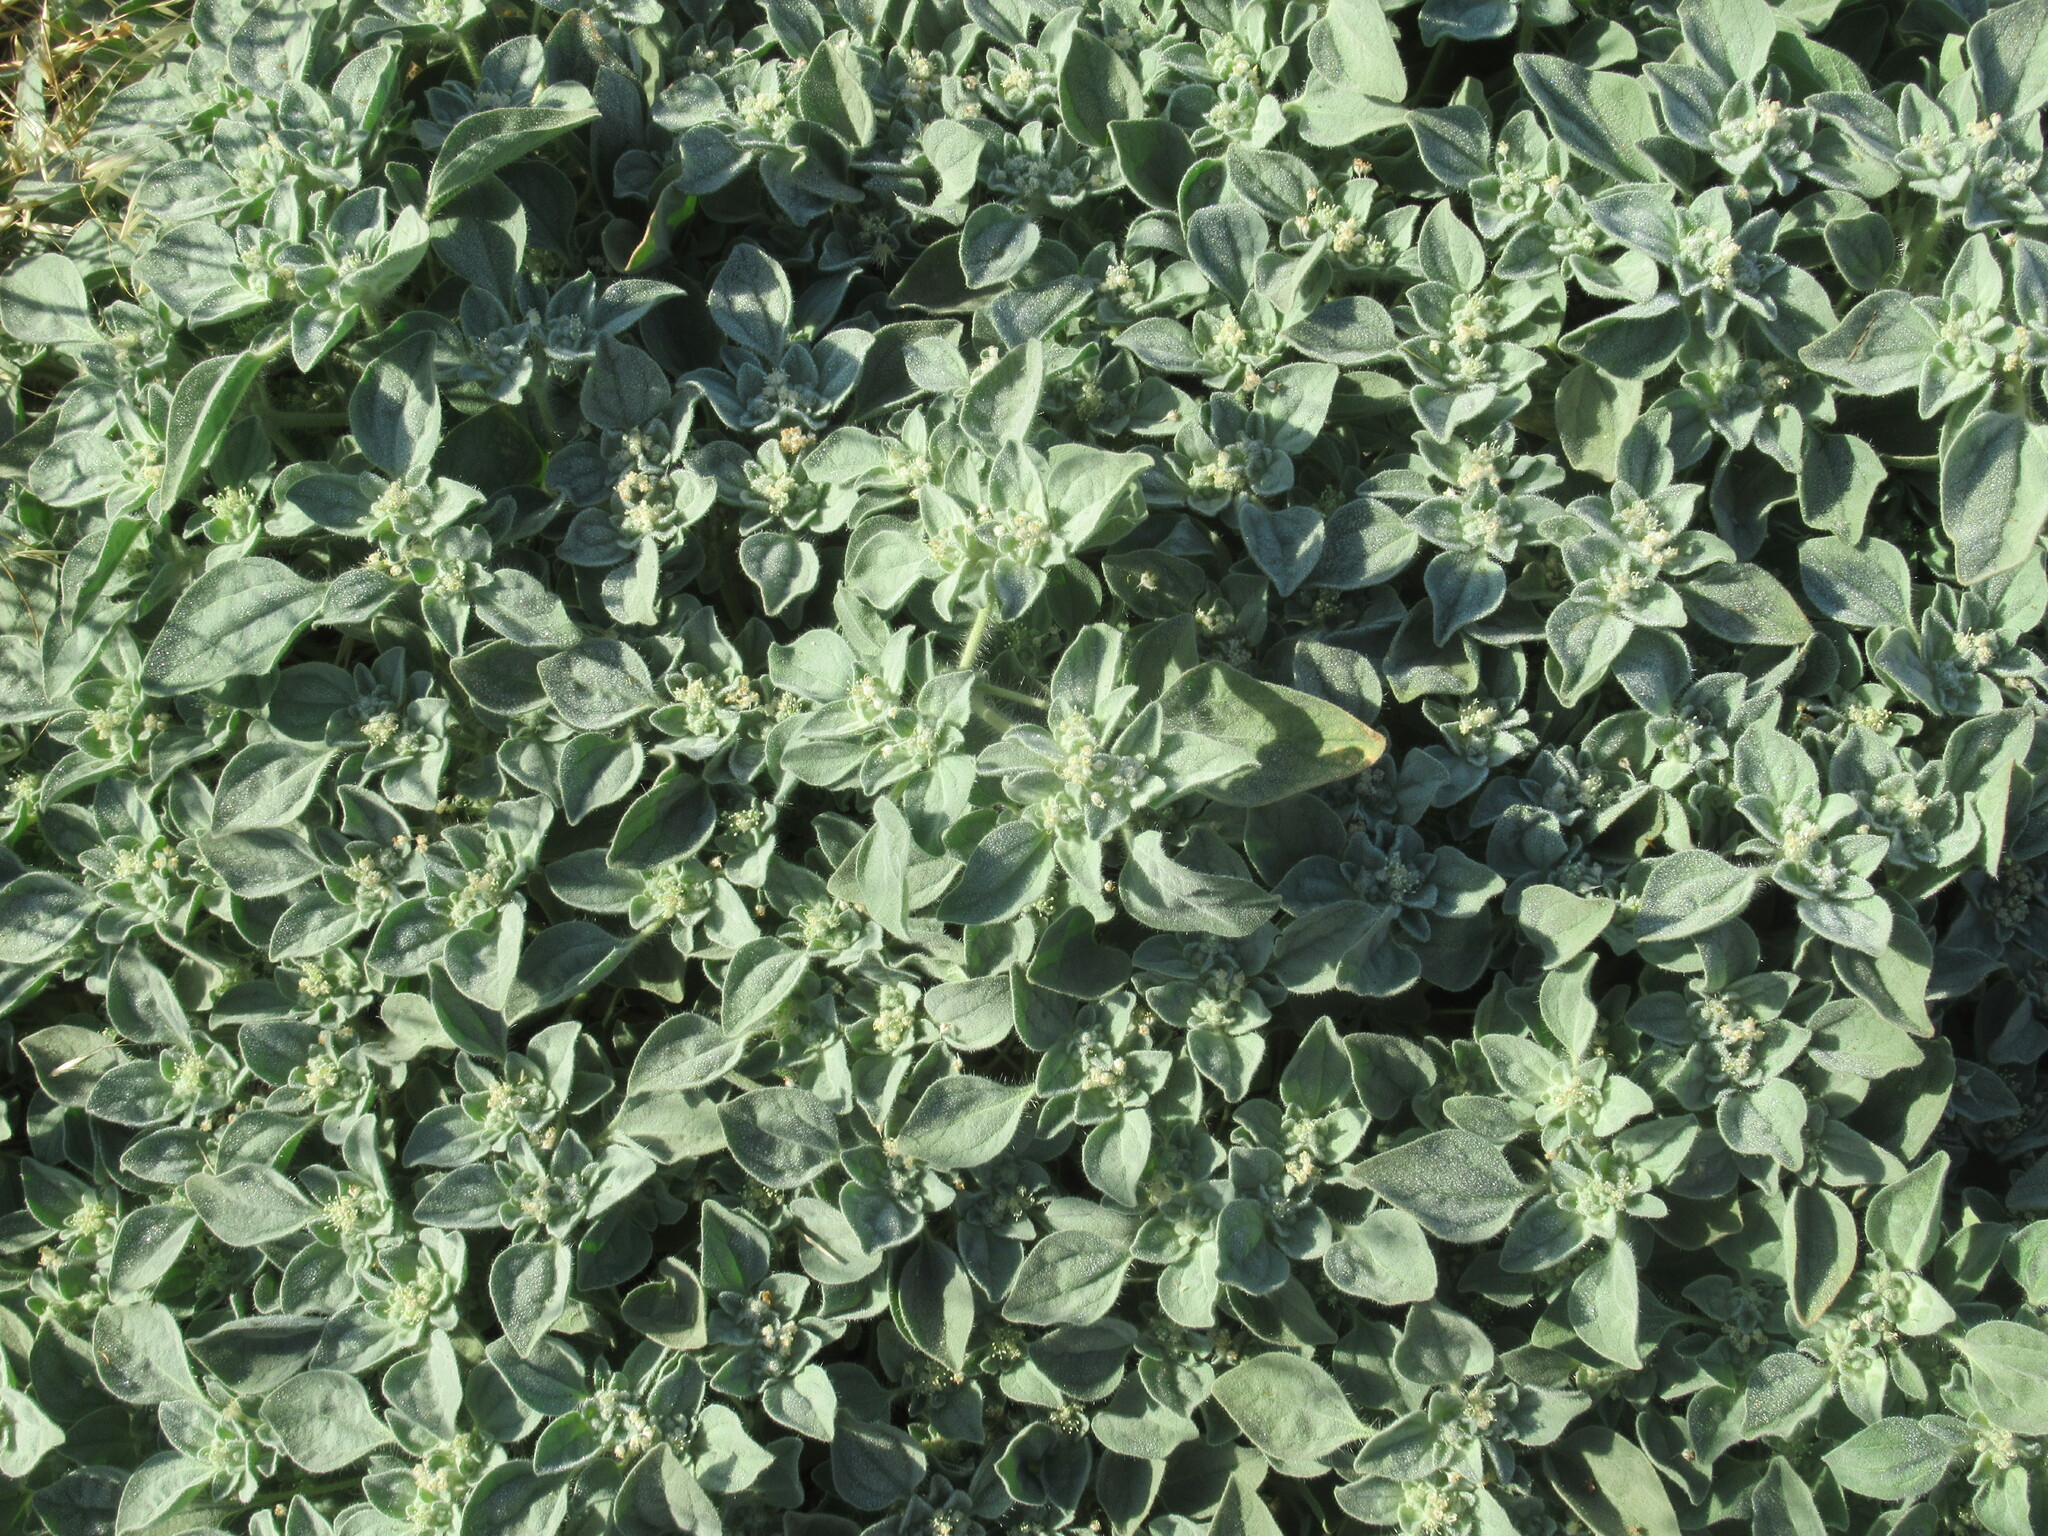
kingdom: Plantae
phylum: Tracheophyta
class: Magnoliopsida
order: Malpighiales
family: Euphorbiaceae
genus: Croton
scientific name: Croton setiger
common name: Dove weed
